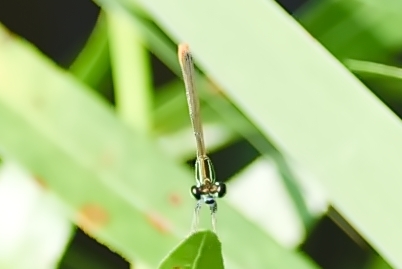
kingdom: Animalia
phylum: Arthropoda
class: Insecta
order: Odonata
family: Coenagrionidae
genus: Agriocnemis
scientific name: Agriocnemis pygmaea
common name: Pygmy wisp
